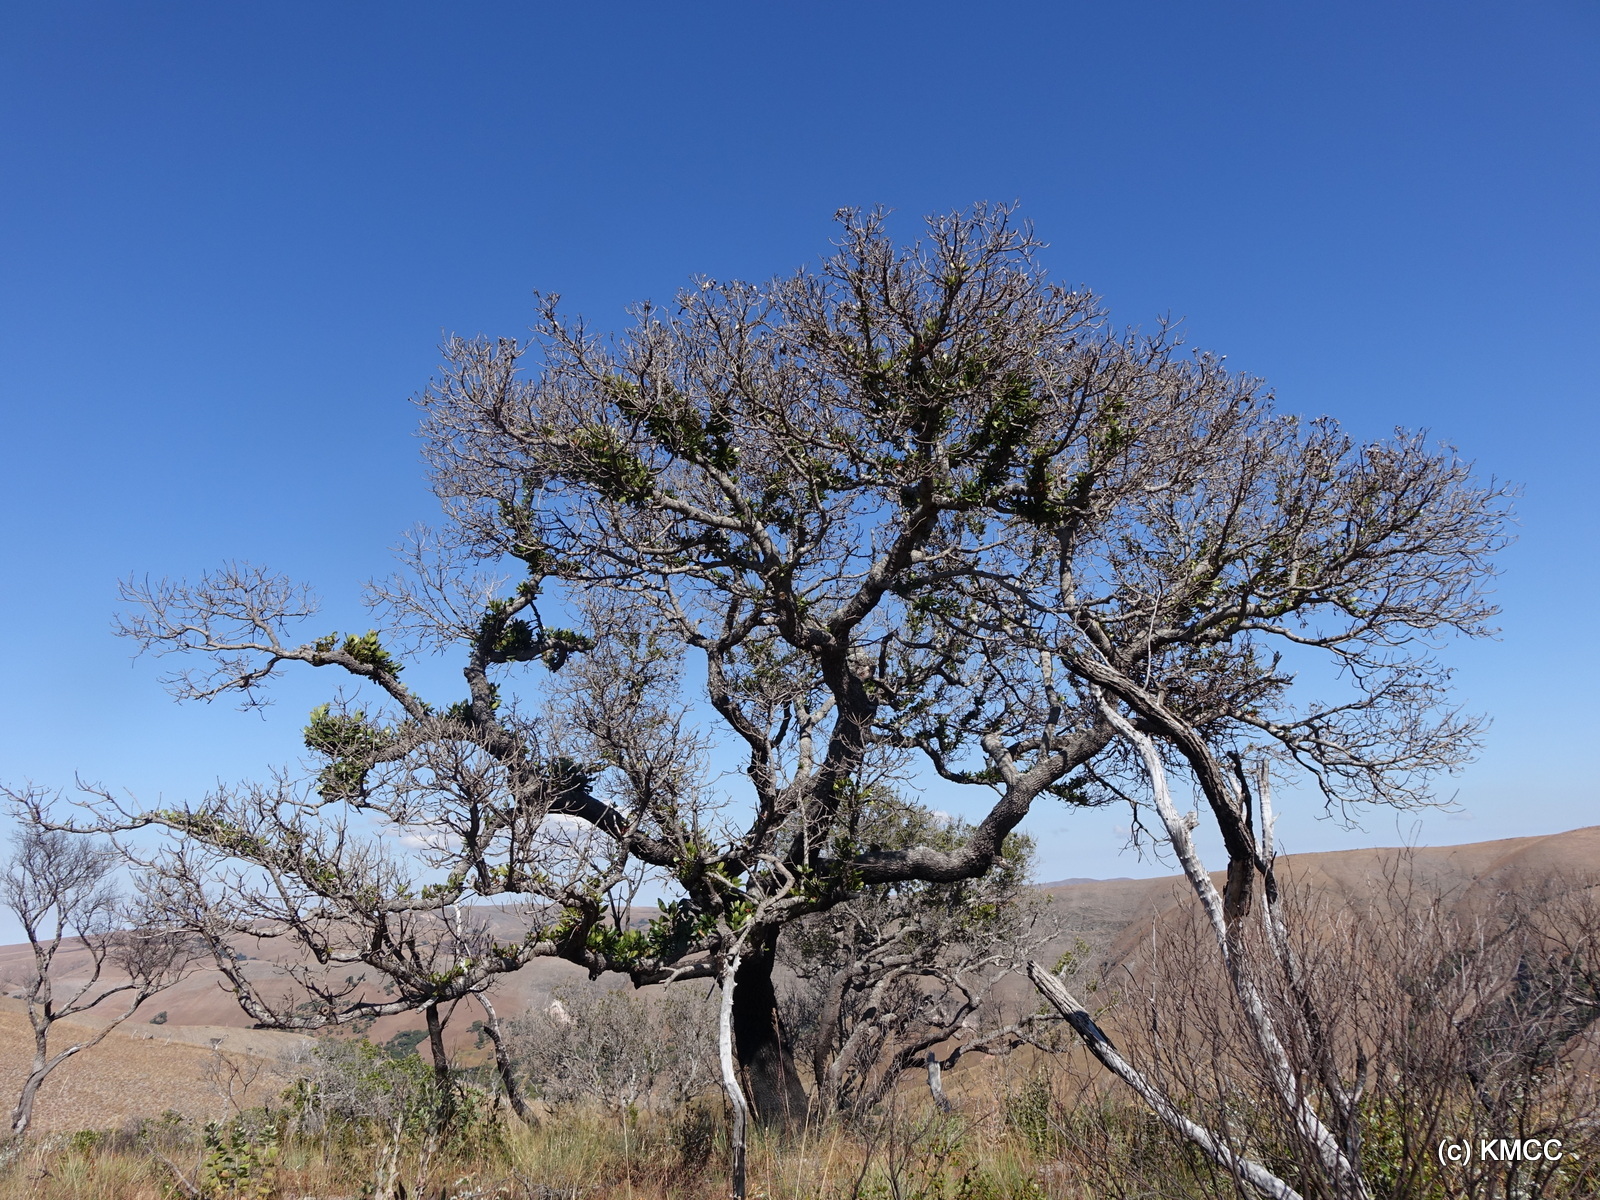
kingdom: Plantae
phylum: Tracheophyta
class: Magnoliopsida
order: Malpighiales
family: Phyllanthaceae
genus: Uapaca
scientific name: Uapaca bojeri
